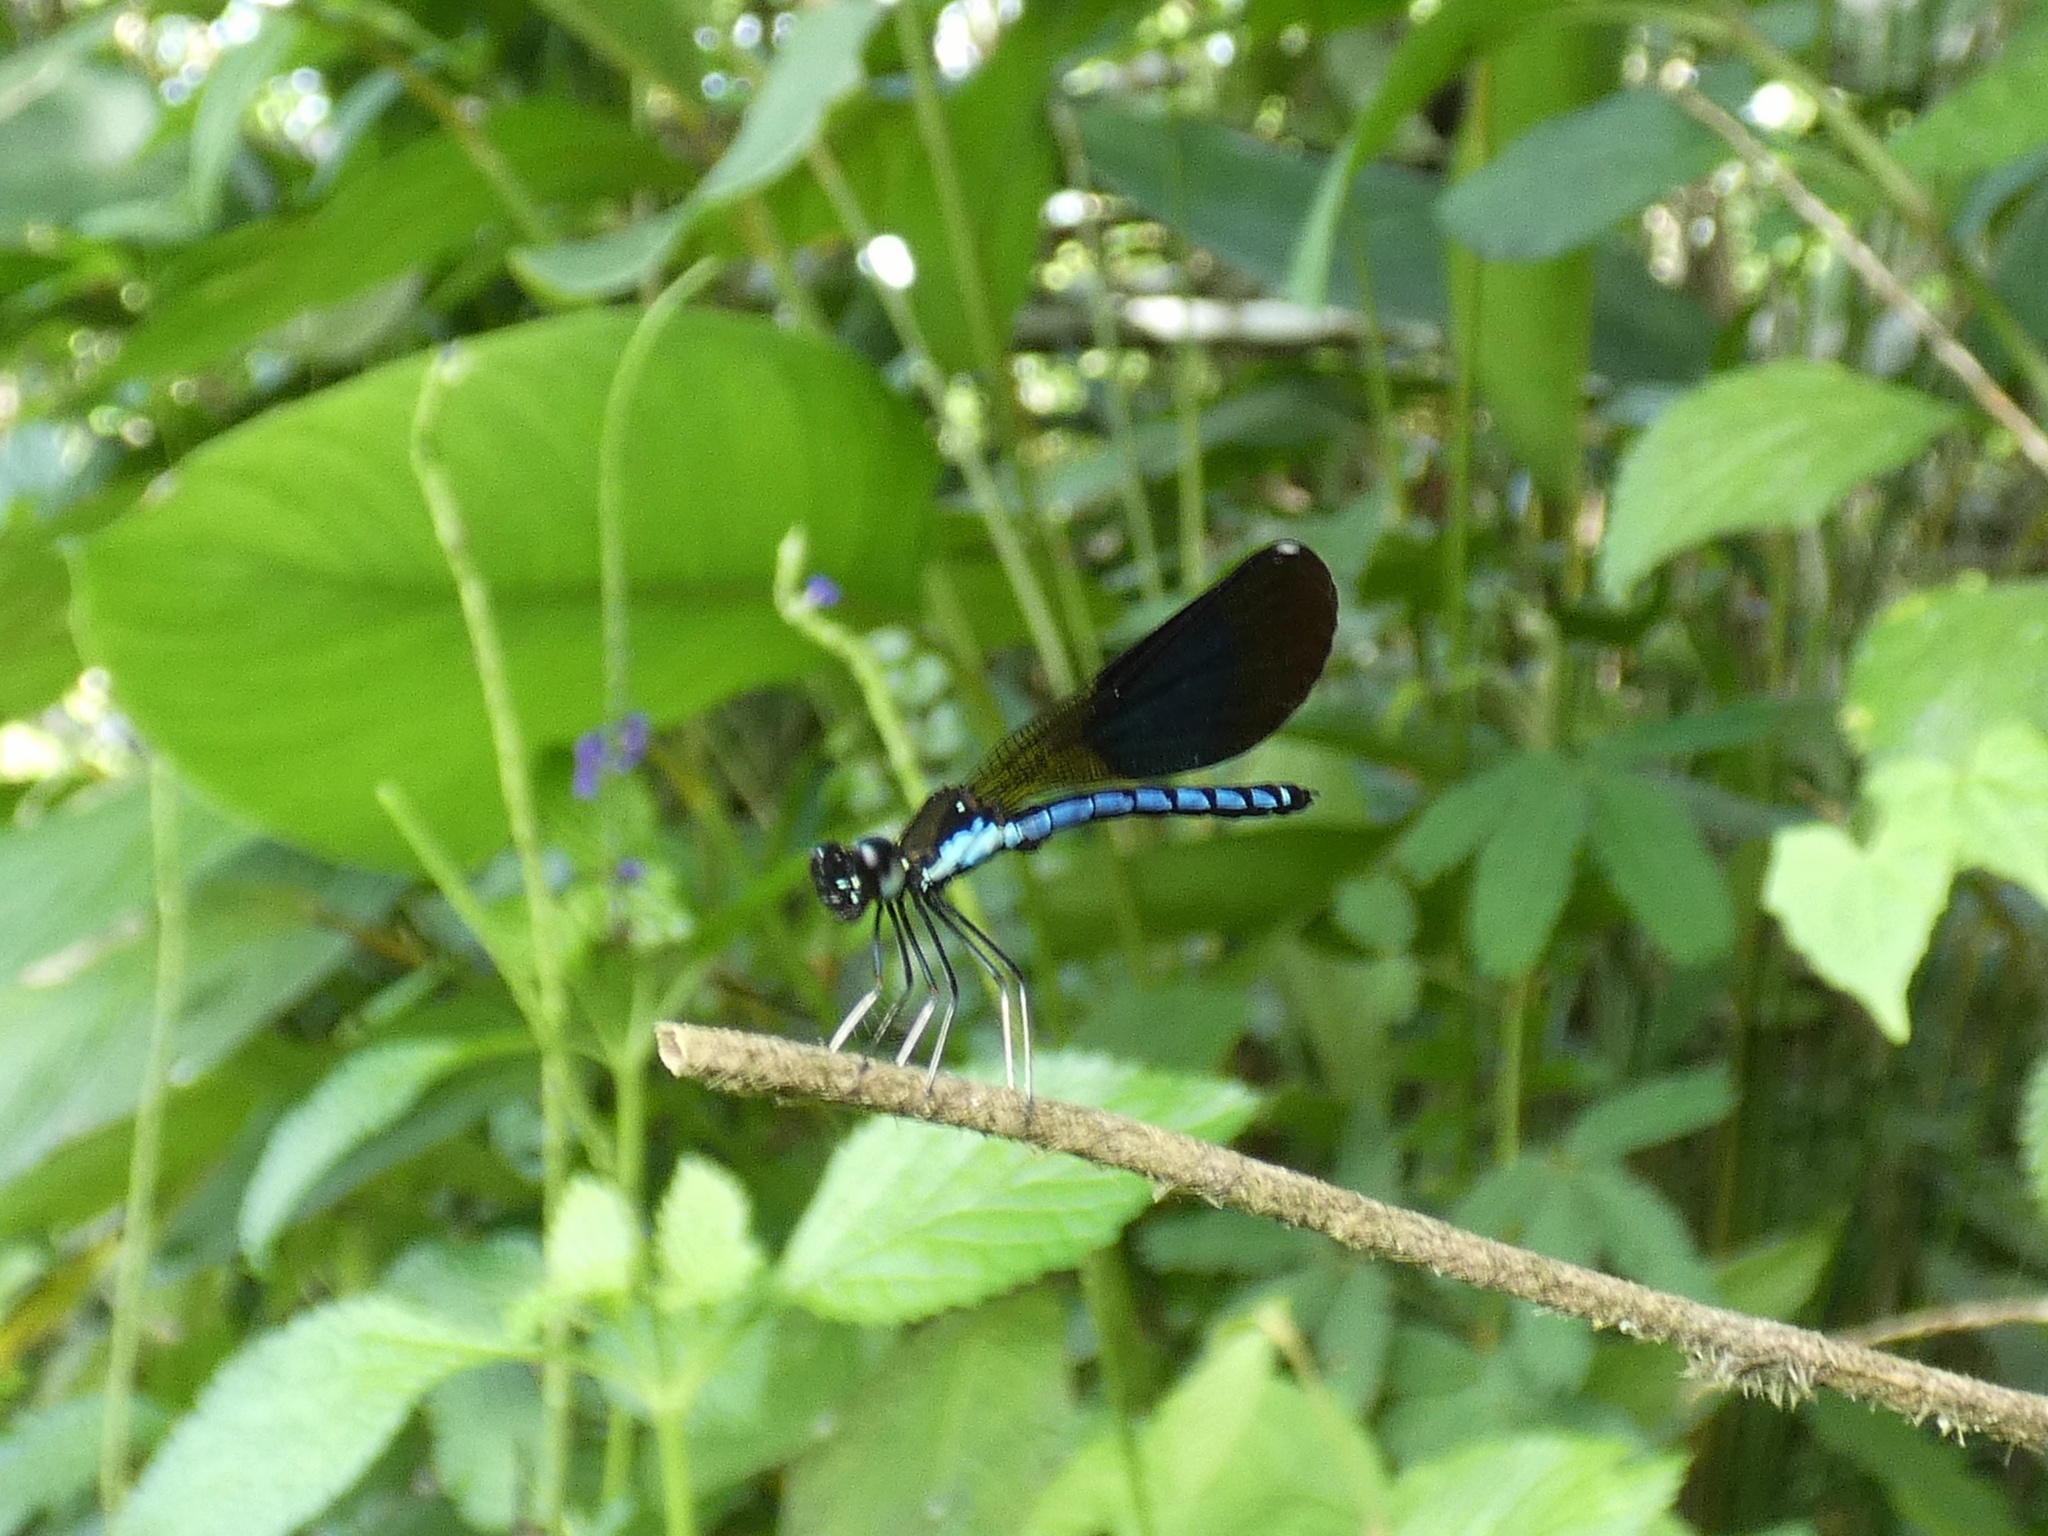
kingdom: Animalia
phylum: Arthropoda
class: Insecta
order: Odonata
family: Chlorocyphidae
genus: Rhinocypha
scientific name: Rhinocypha colorata
